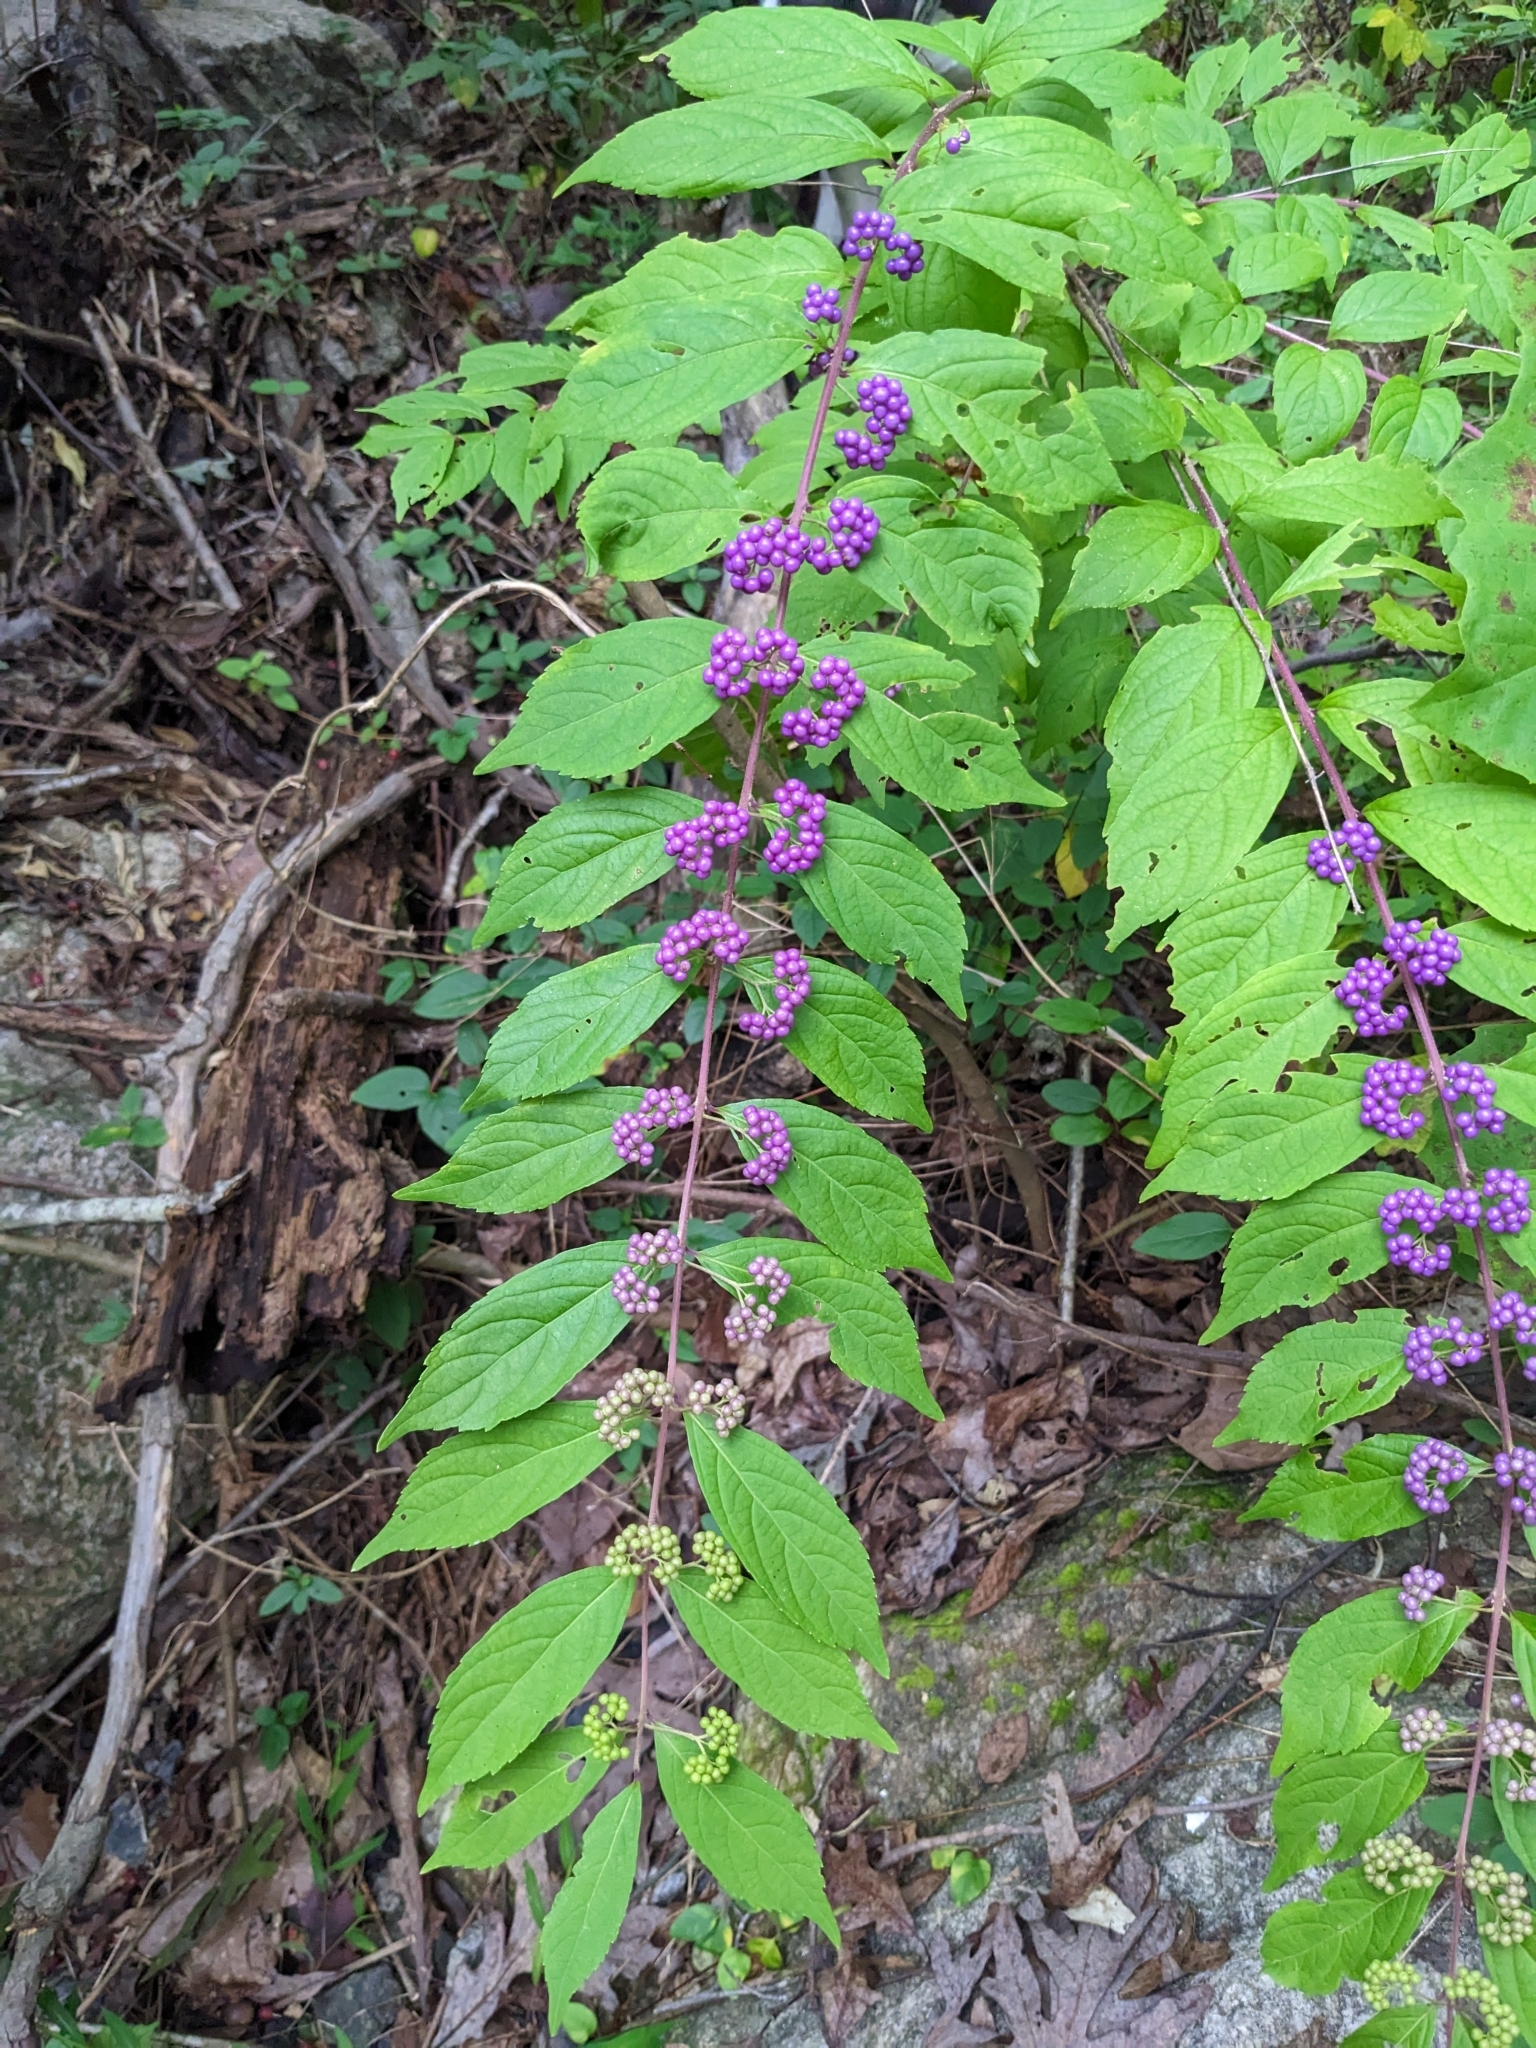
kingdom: Plantae
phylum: Tracheophyta
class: Magnoliopsida
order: Lamiales
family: Lamiaceae
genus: Callicarpa
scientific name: Callicarpa dichotoma
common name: Purple beauty-berry
